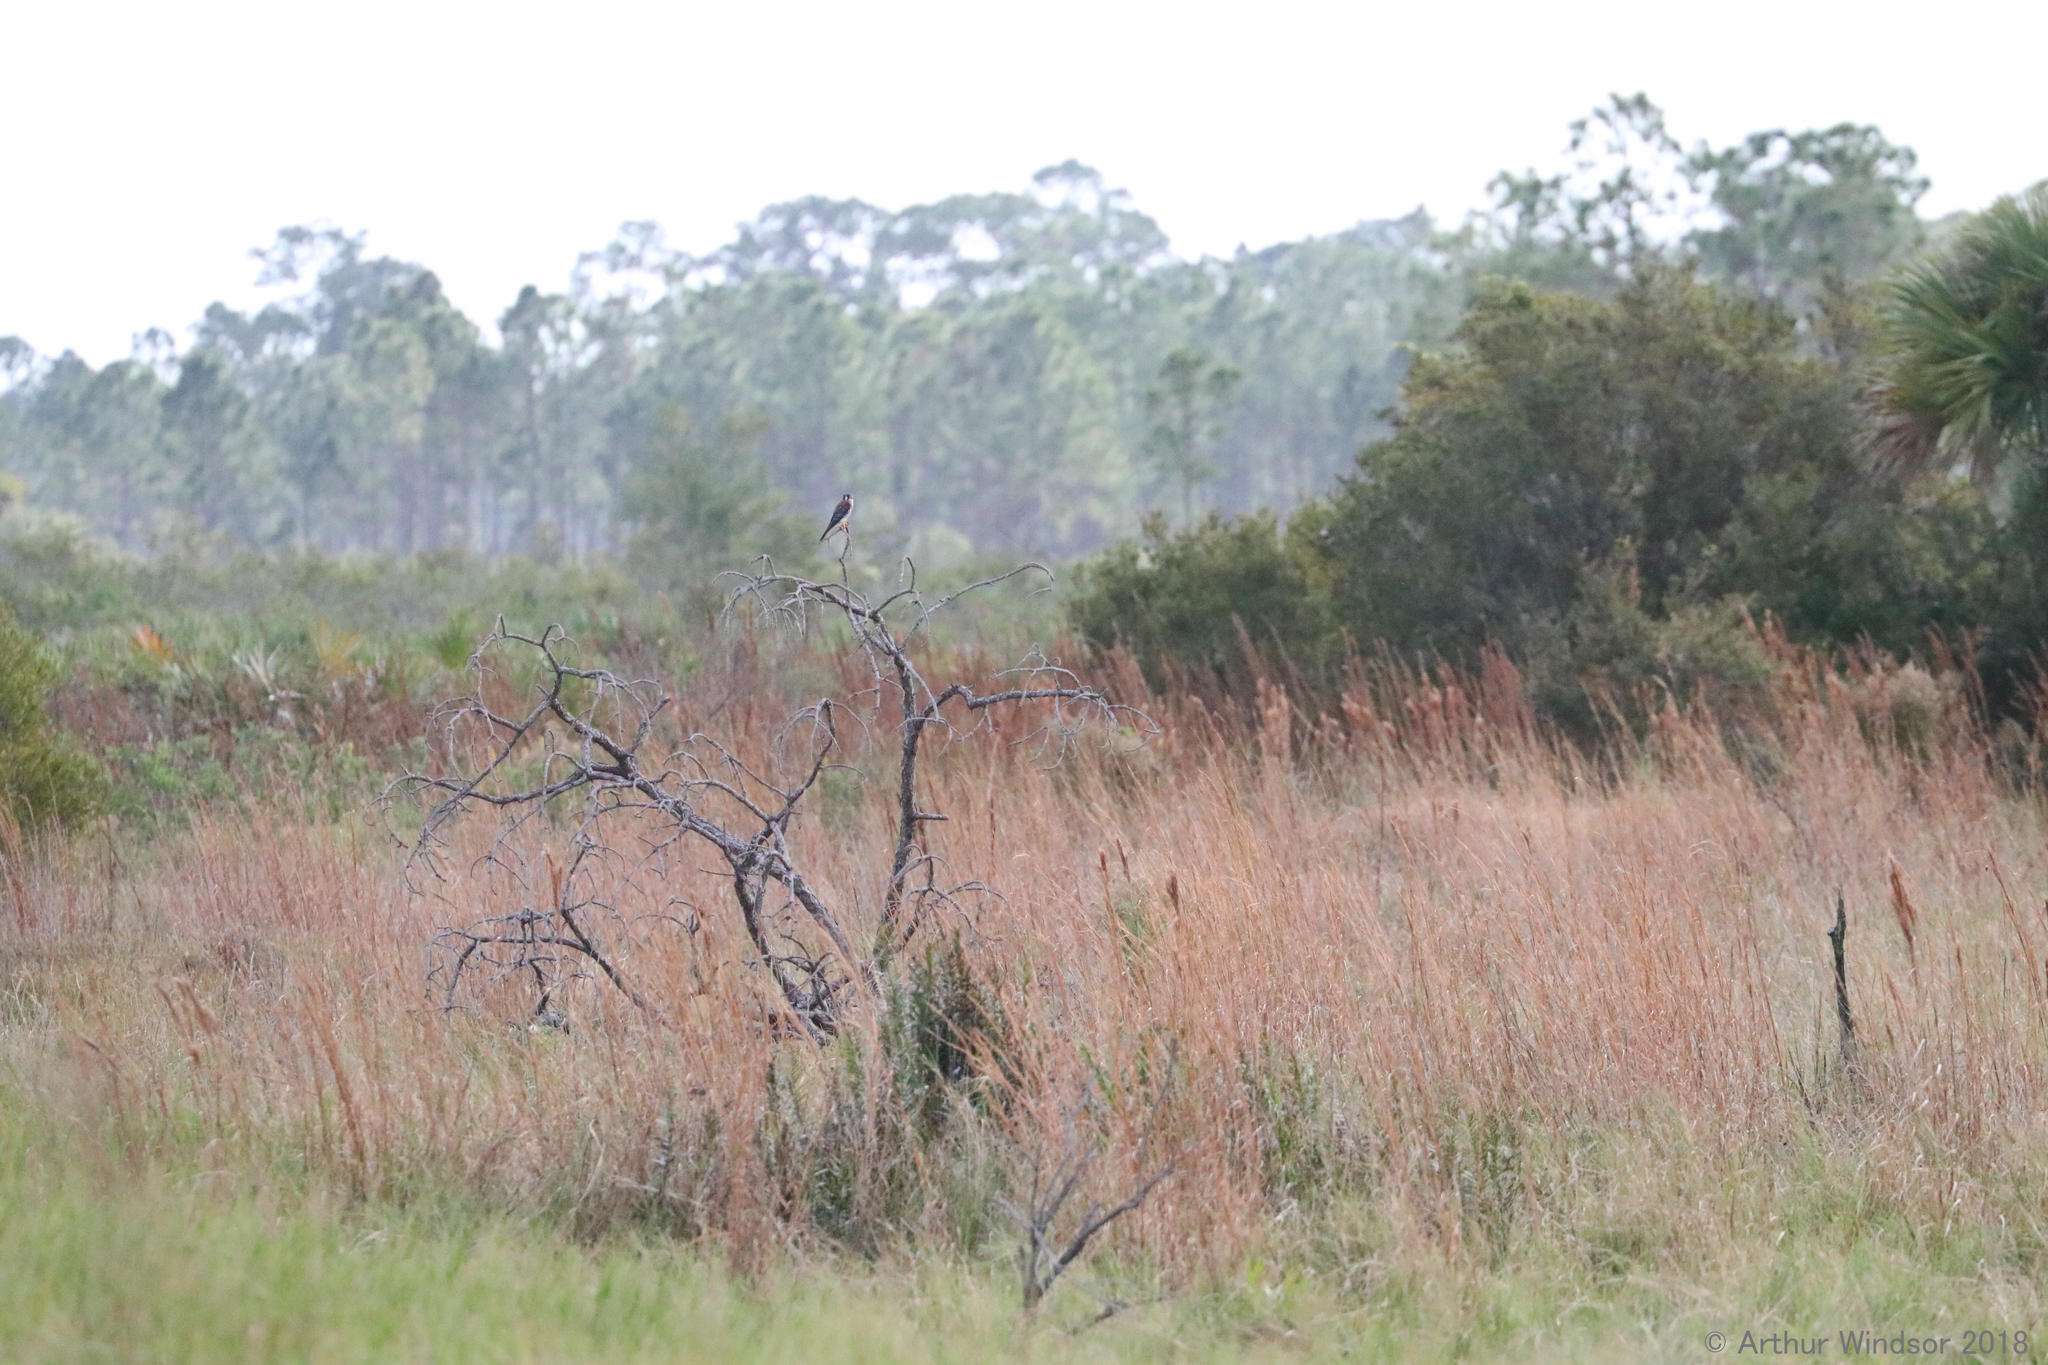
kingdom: Animalia
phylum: Chordata
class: Aves
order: Falconiformes
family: Falconidae
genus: Falco
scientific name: Falco sparverius
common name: American kestrel
